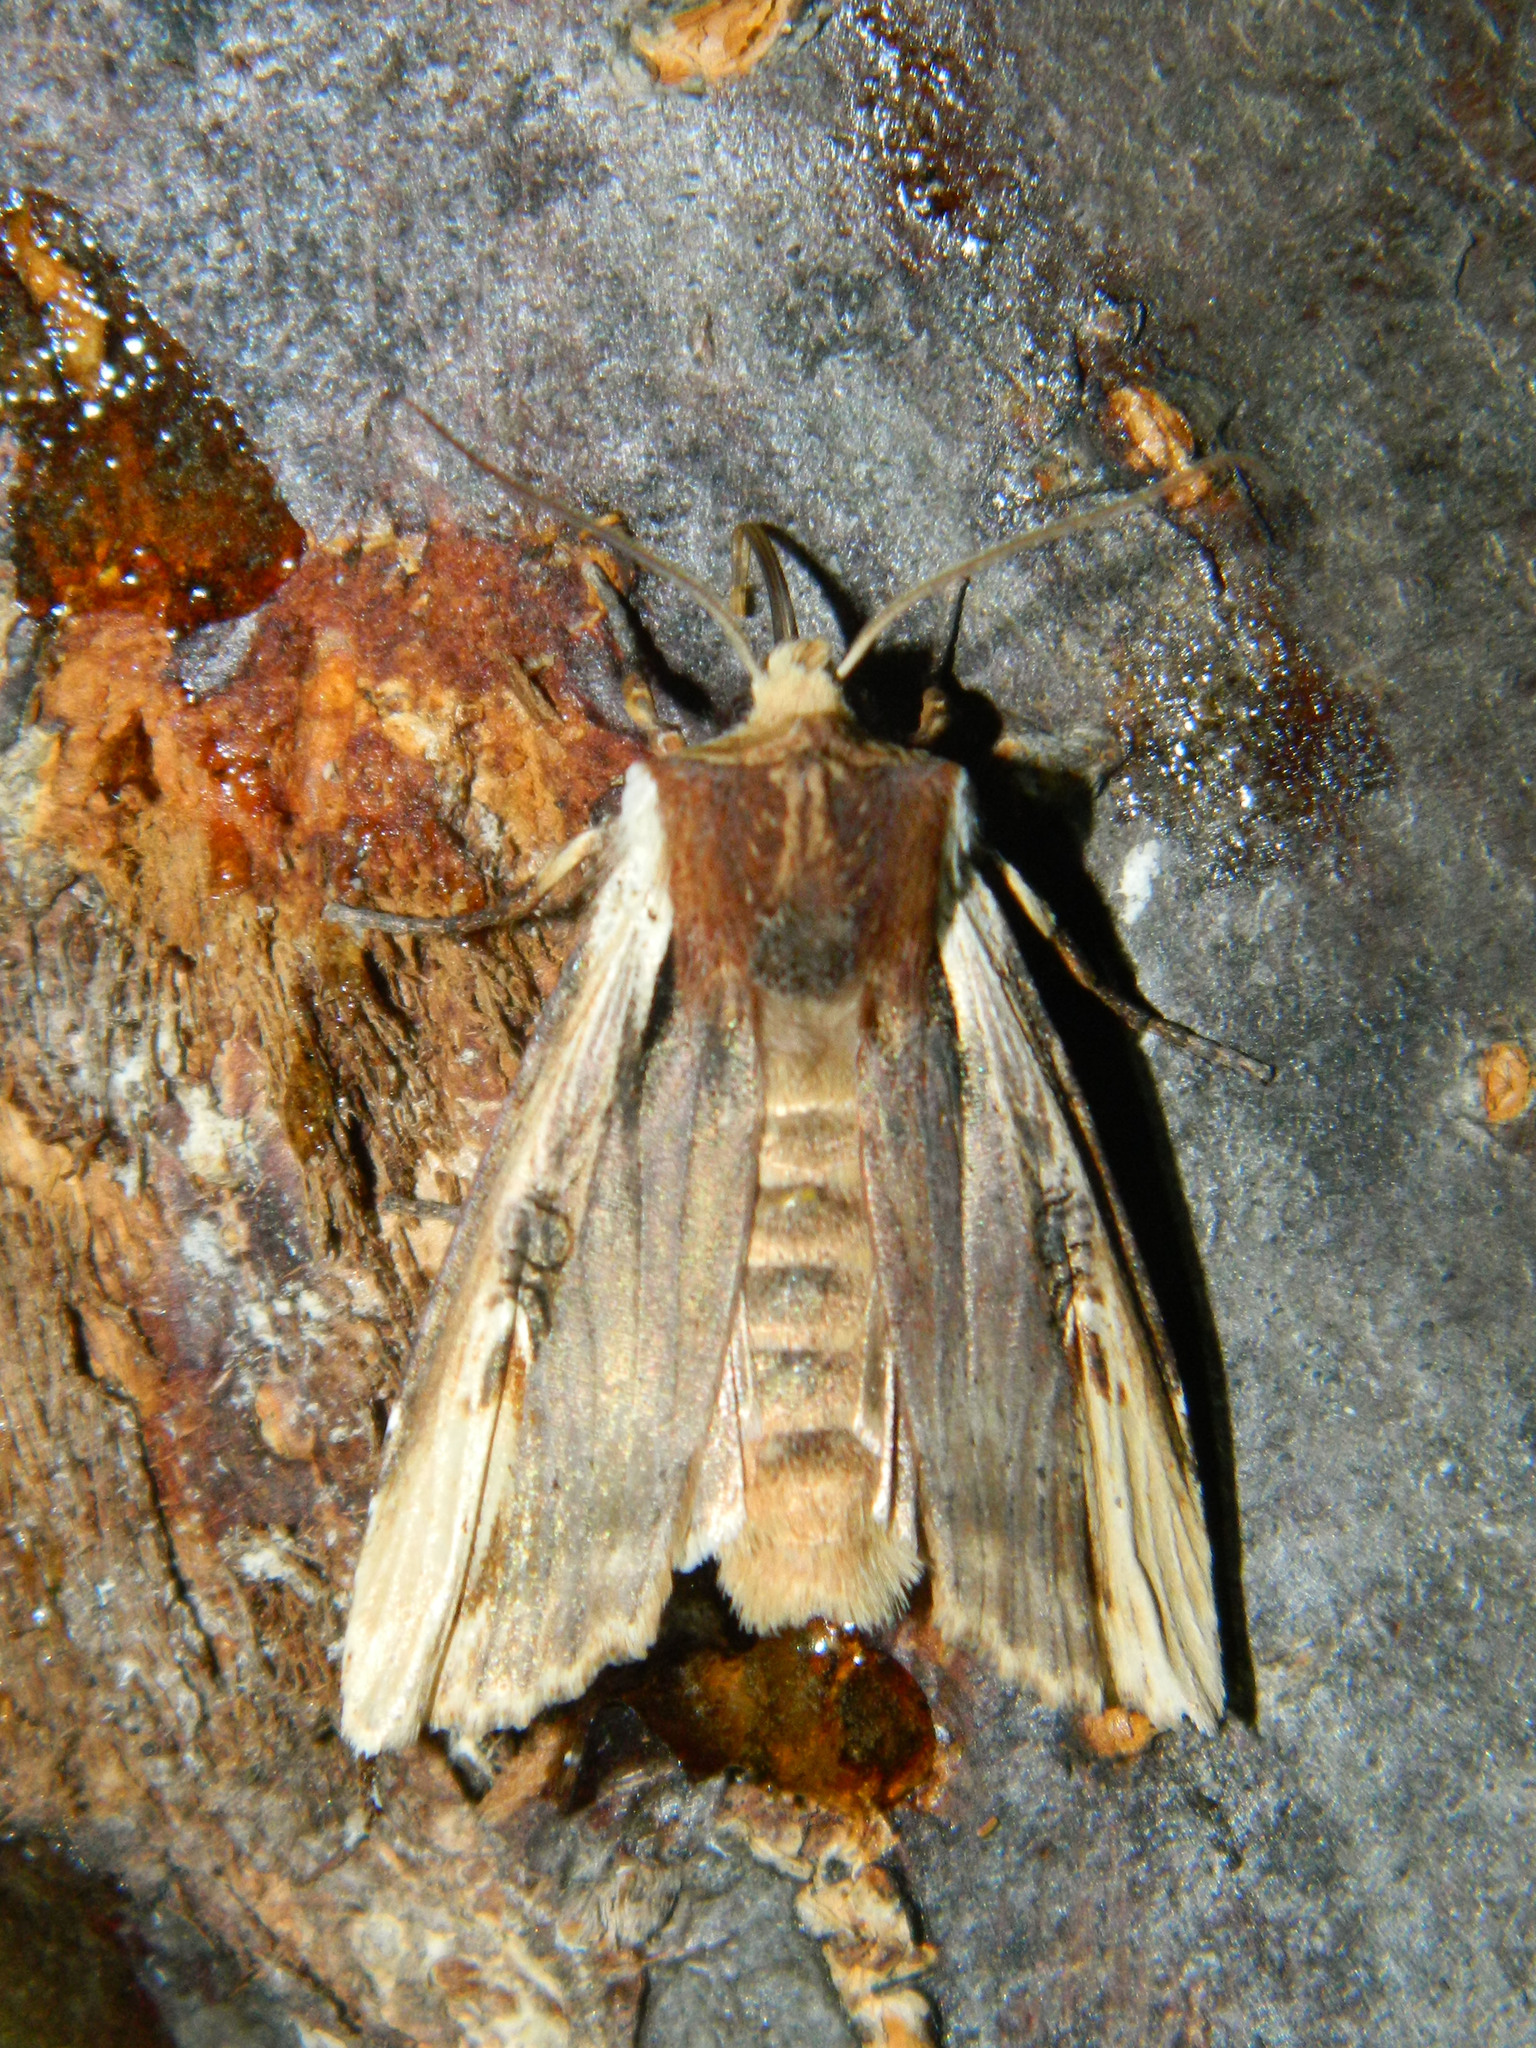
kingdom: Animalia
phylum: Arthropoda
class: Insecta
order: Lepidoptera
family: Noctuidae
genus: Xylena
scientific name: Xylena curvimacula
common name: Dot-and-dash swordgrass moth
